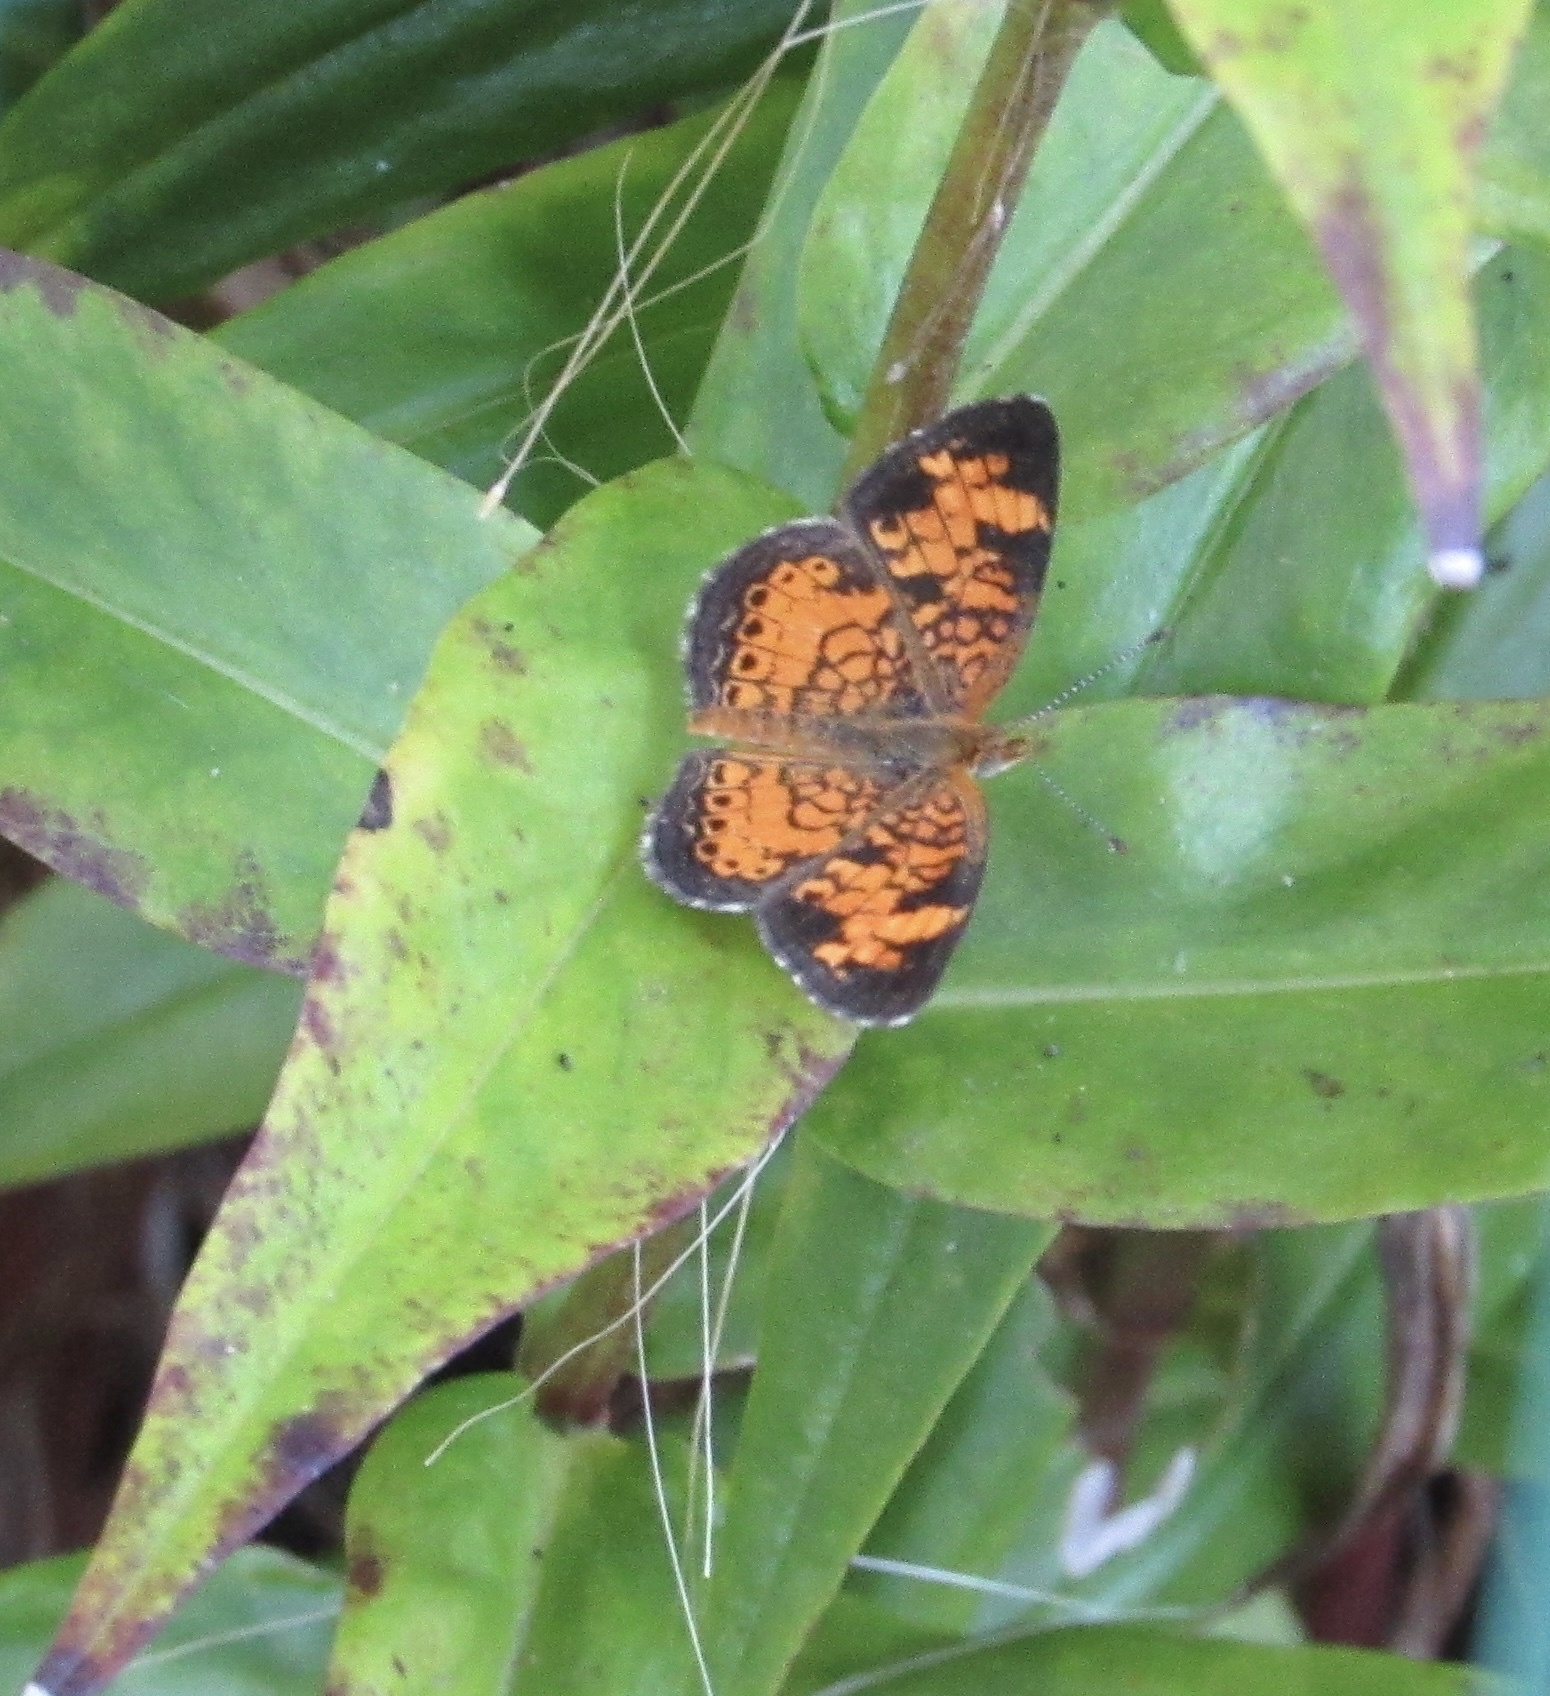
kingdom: Animalia
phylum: Arthropoda
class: Insecta
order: Lepidoptera
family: Nymphalidae
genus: Phyciodes
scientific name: Phyciodes tharos
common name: Pearl crescent
